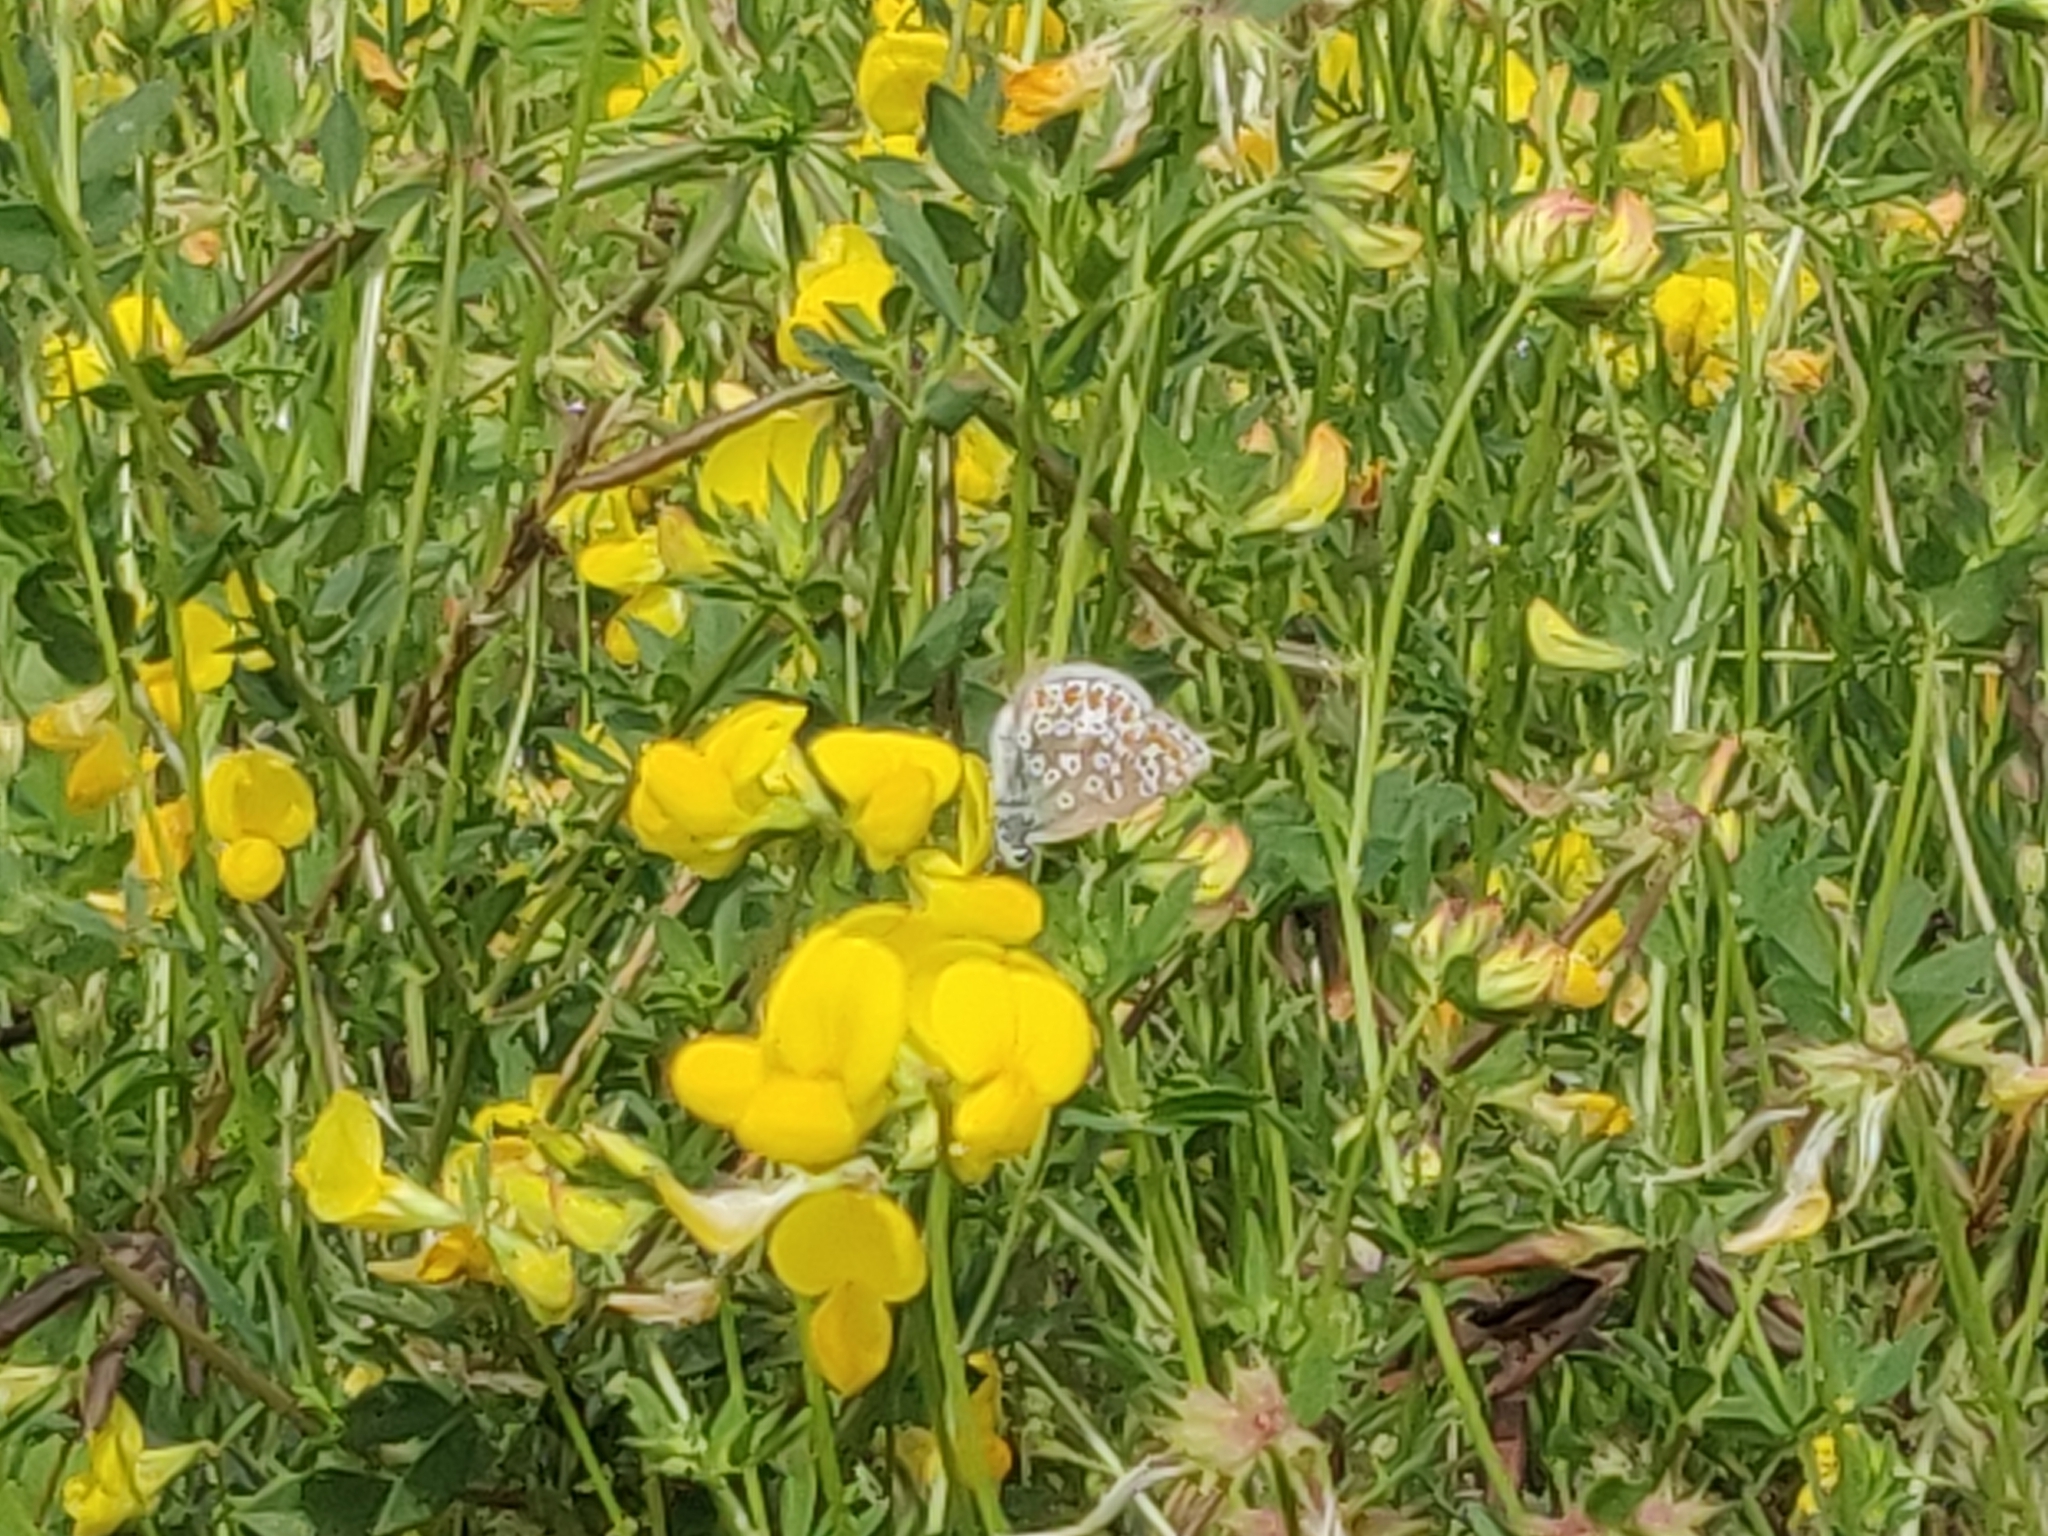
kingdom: Animalia
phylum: Arthropoda
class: Insecta
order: Lepidoptera
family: Lycaenidae
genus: Polyommatus
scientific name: Polyommatus icarus
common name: Common blue
